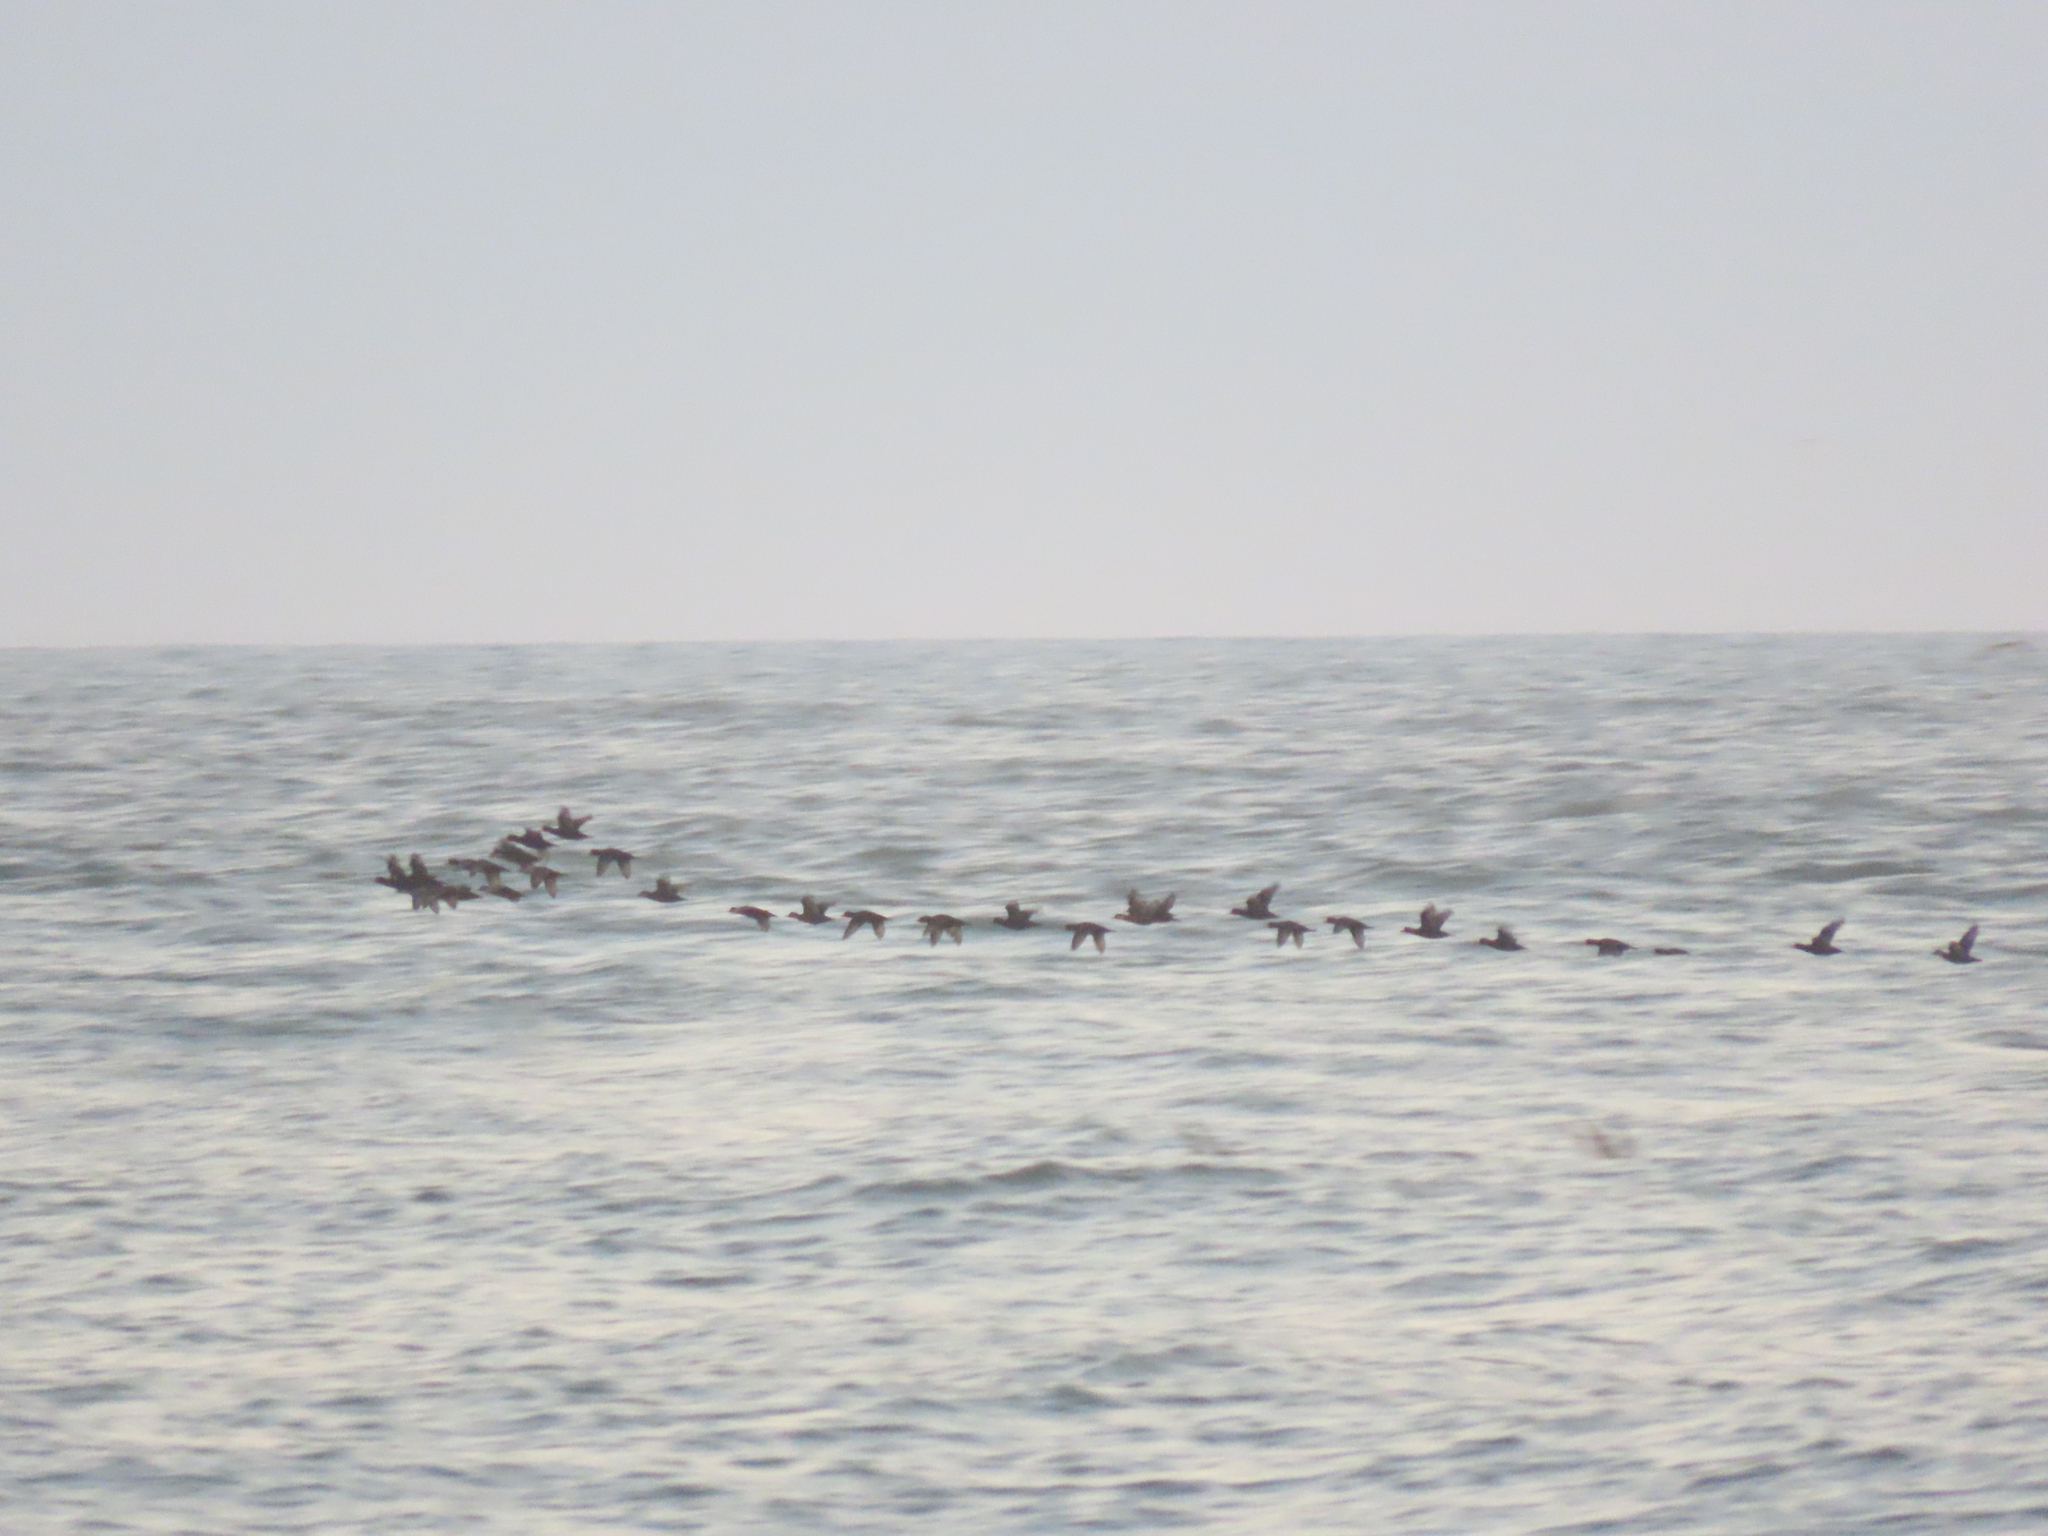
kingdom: Animalia
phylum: Chordata
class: Aves
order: Anseriformes
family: Anatidae
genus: Melanitta
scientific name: Melanitta americana
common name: Black scoter
